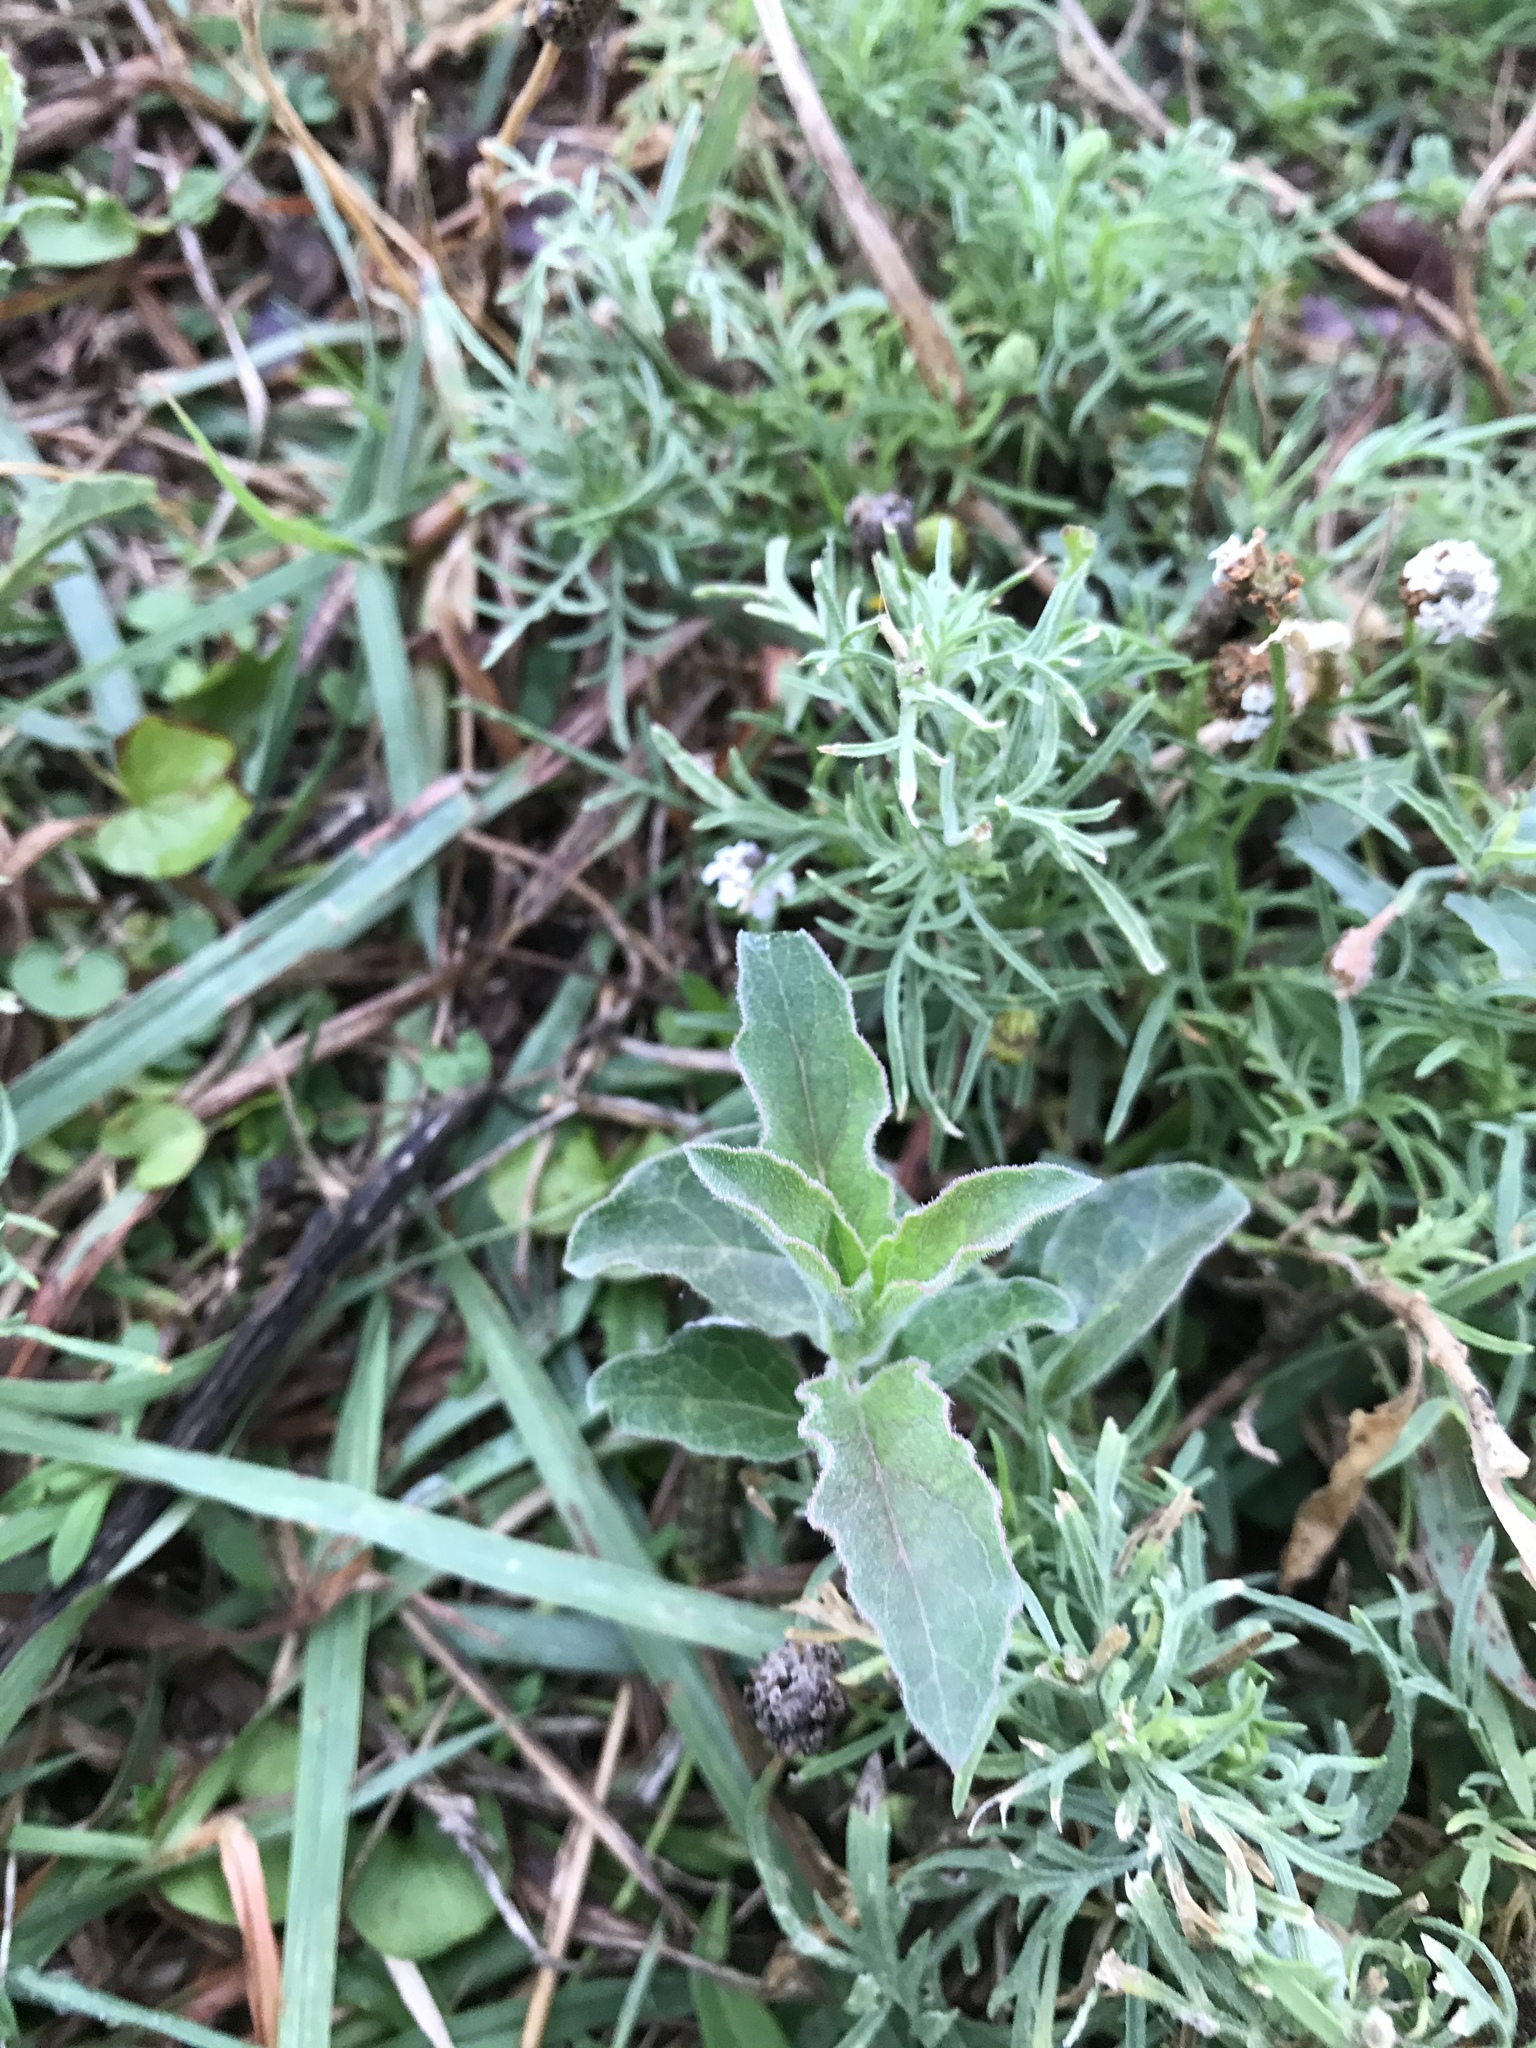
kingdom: Plantae
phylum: Tracheophyta
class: Magnoliopsida
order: Gentianales
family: Apocynaceae
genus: Asclepias
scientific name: Asclepias oenotheroides
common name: Zizotes milkweed
